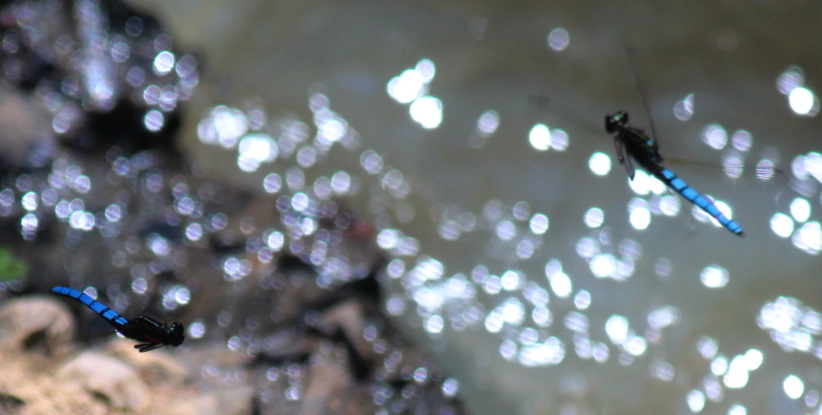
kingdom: Animalia
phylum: Arthropoda
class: Insecta
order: Odonata
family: Chlorocyphidae
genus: Platycypha
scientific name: Platycypha caligata
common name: Dancing jewel
